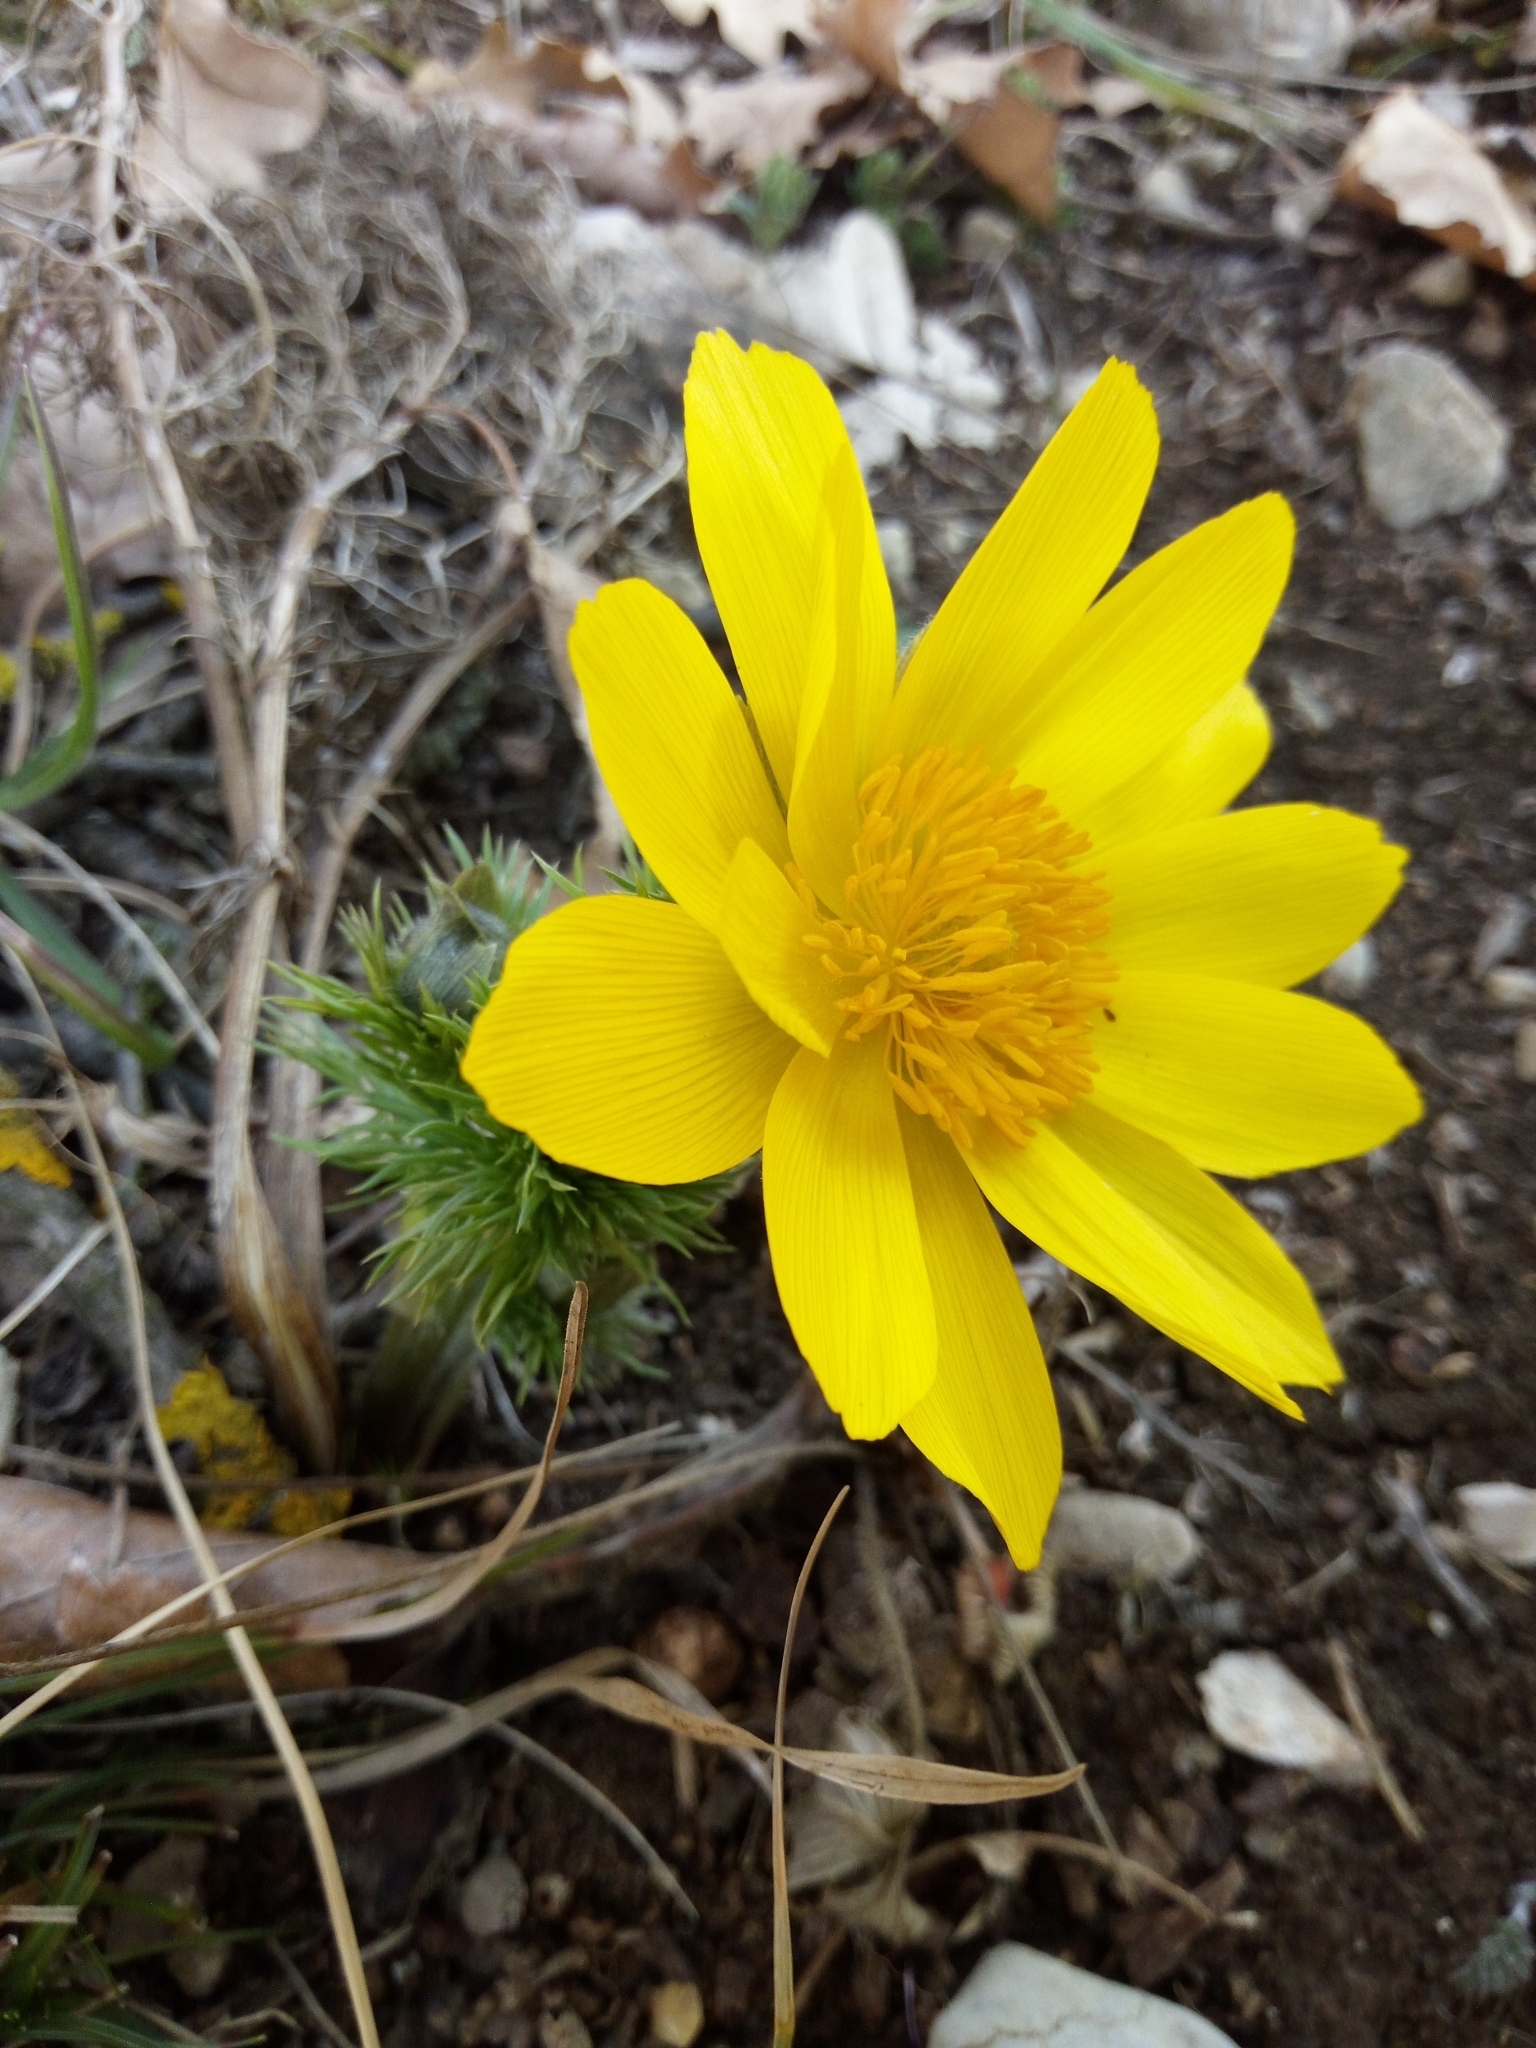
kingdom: Plantae
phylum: Tracheophyta
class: Magnoliopsida
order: Ranunculales
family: Ranunculaceae
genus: Adonis
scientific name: Adonis vernalis
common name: Yellow pheasants-eye
